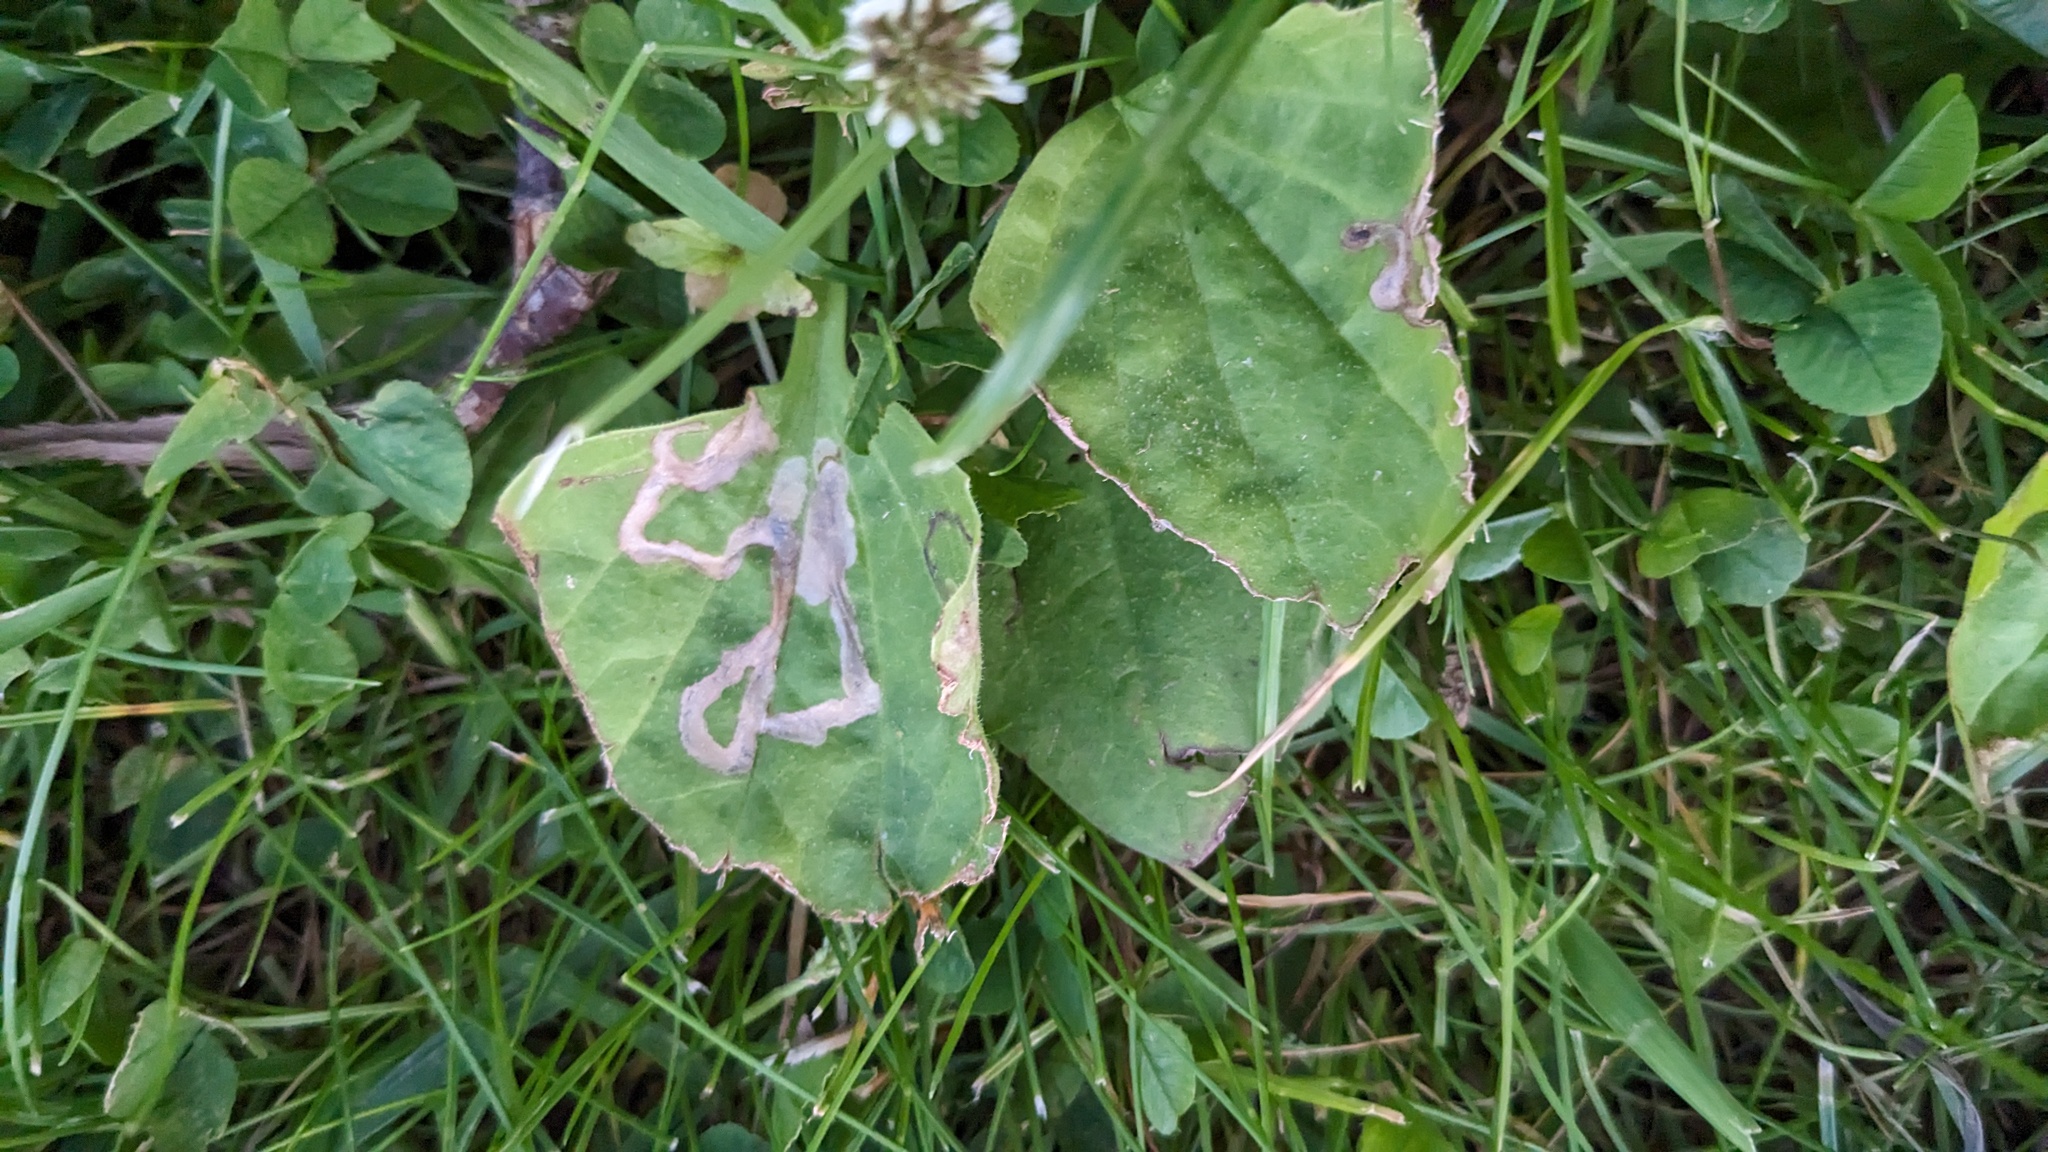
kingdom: Animalia
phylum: Arthropoda
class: Insecta
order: Coleoptera
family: Chrysomelidae
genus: Dibolia
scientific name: Dibolia borealis
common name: Northern plantain flea beetle
